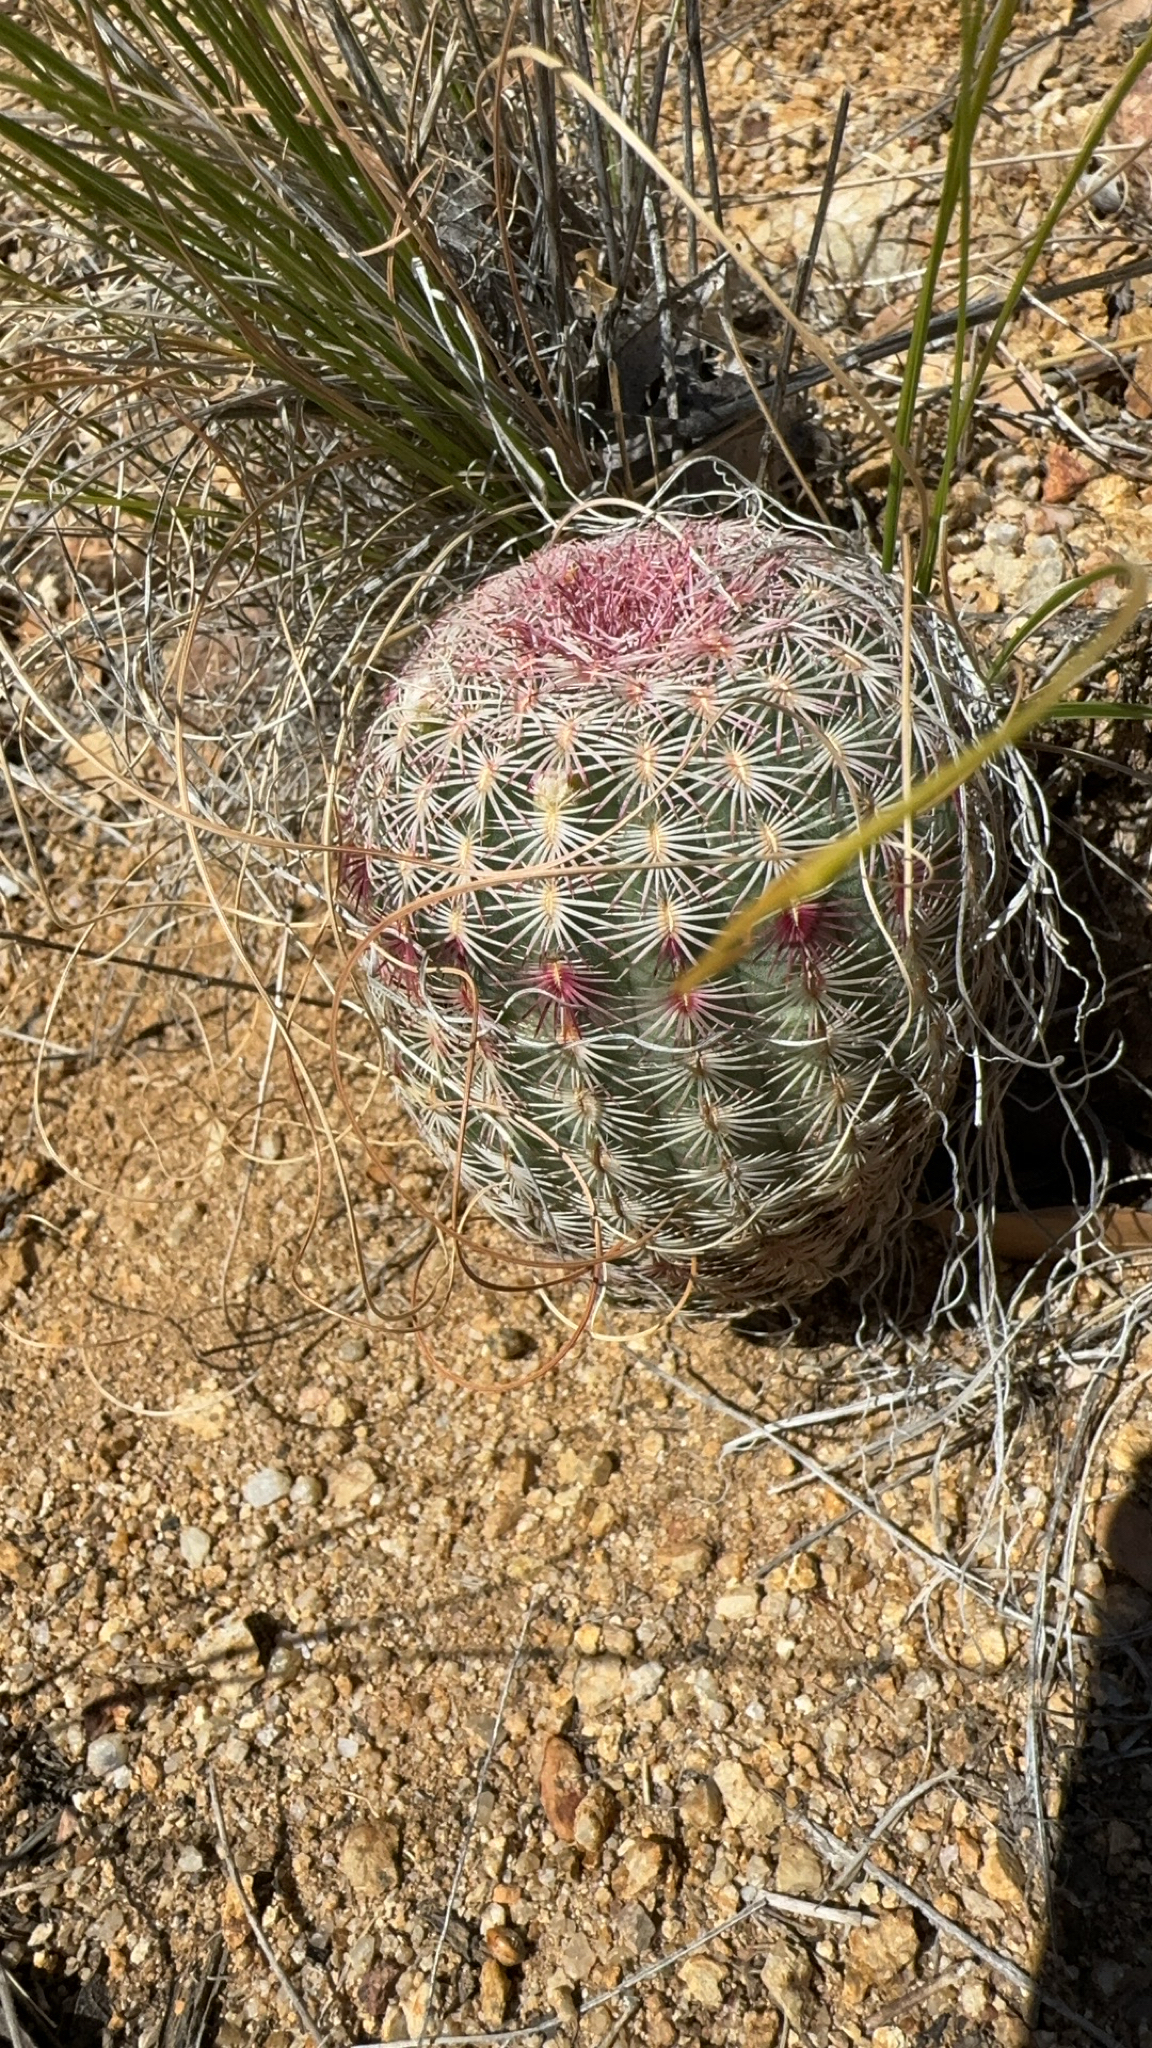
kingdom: Plantae
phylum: Tracheophyta
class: Magnoliopsida
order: Caryophyllales
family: Cactaceae
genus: Echinocereus
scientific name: Echinocereus rigidissimus
